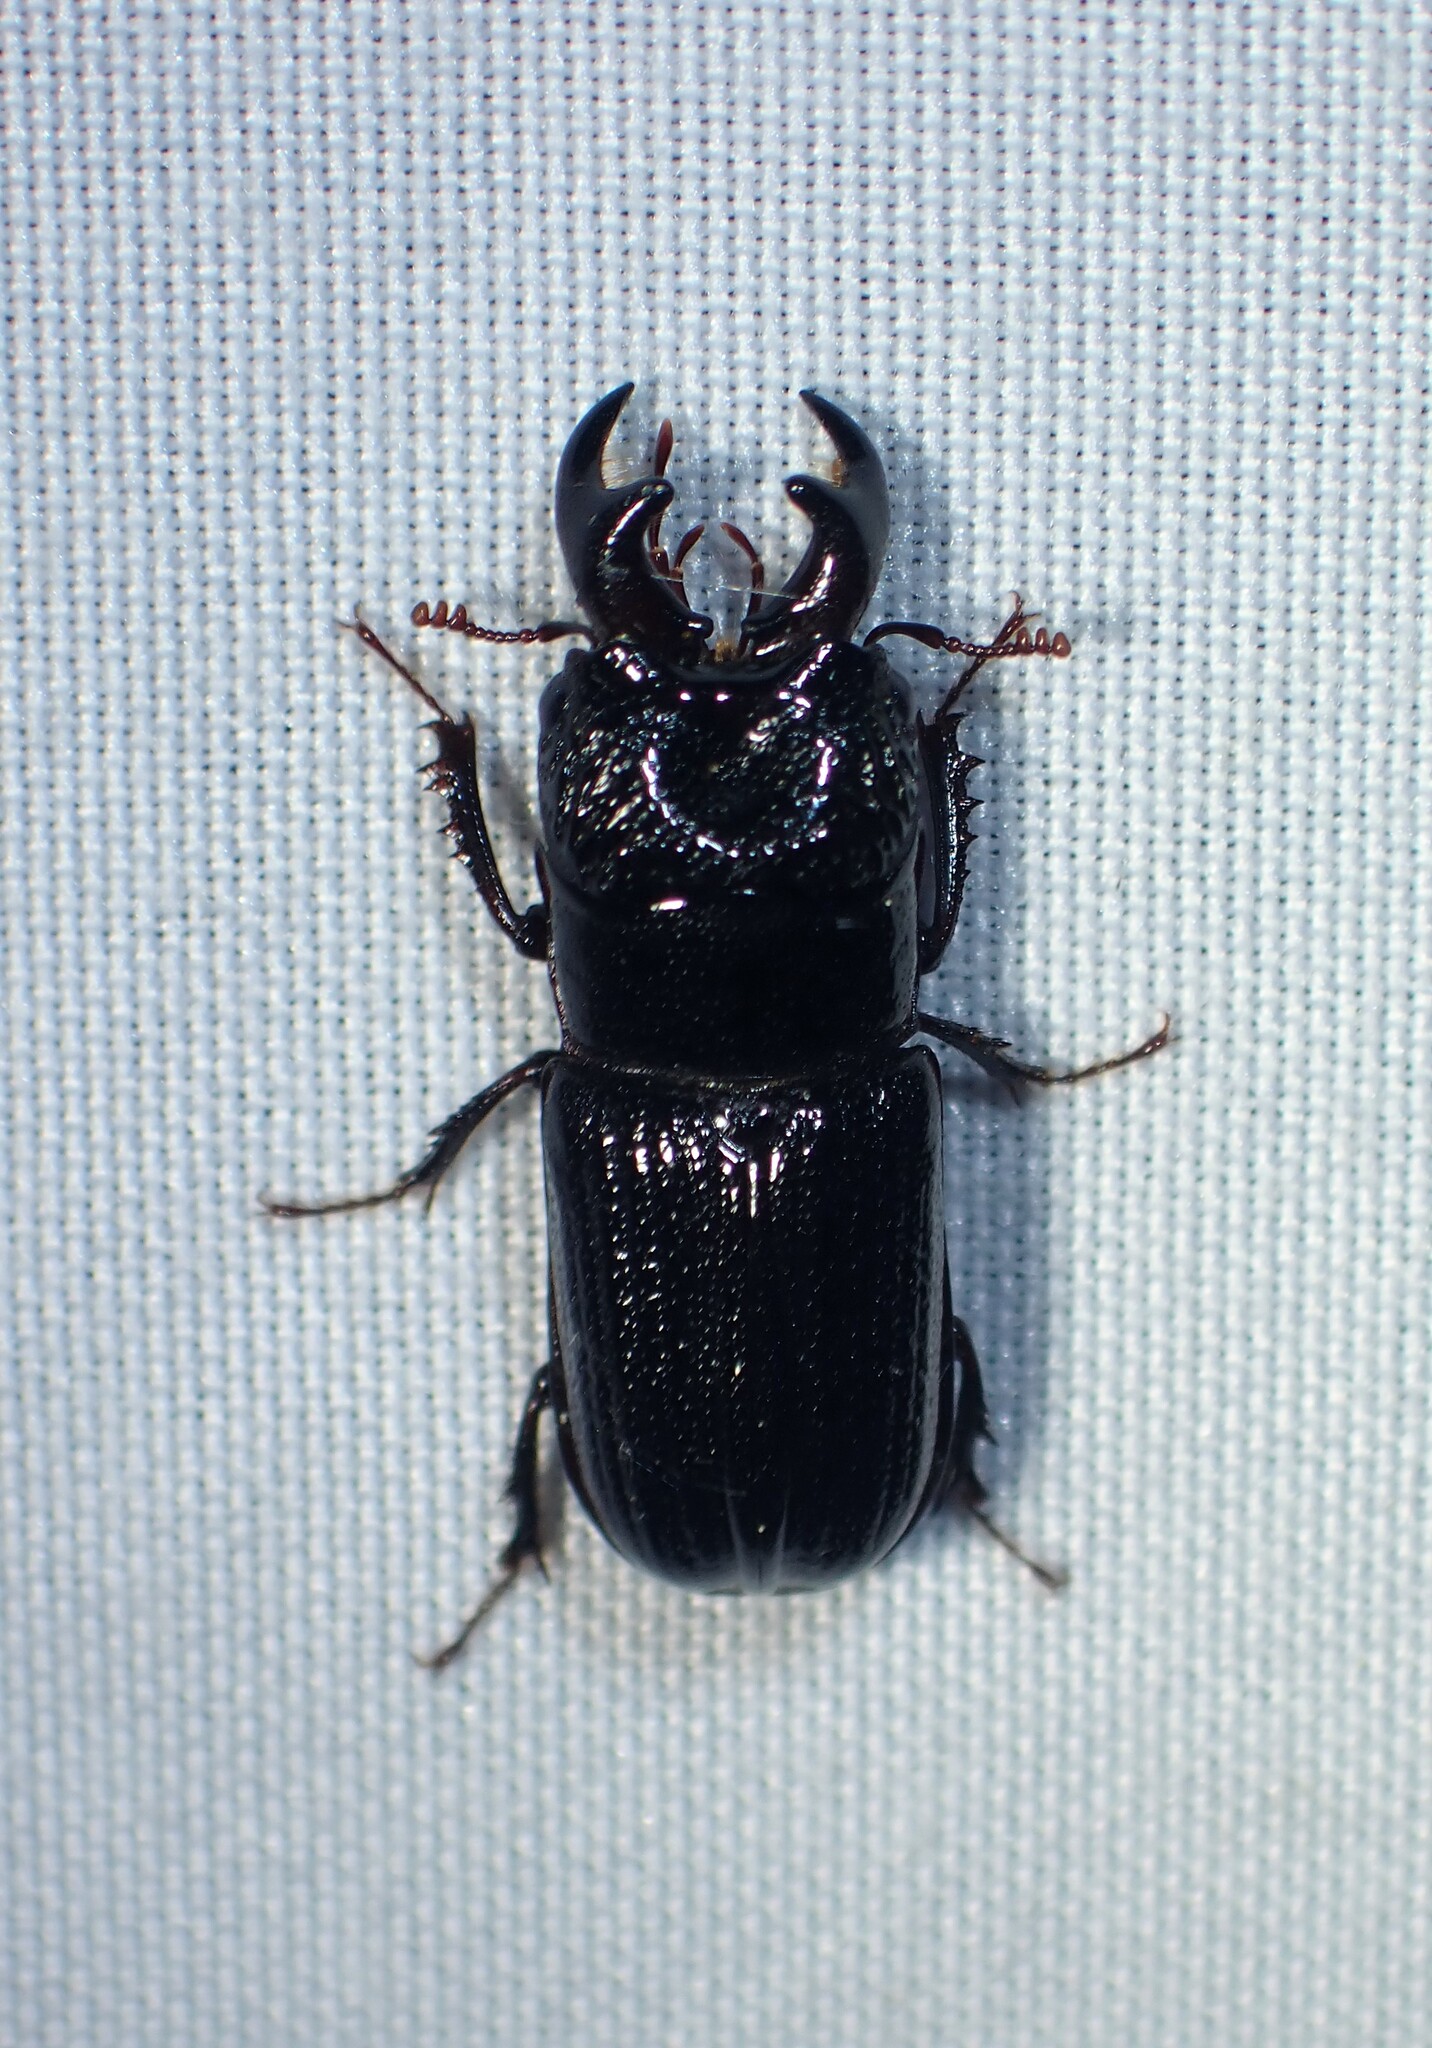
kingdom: Animalia
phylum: Arthropoda
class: Insecta
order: Coleoptera
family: Lucanidae
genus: Ceruchus
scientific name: Ceruchus piceus
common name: Red-rot decay stag beetle
